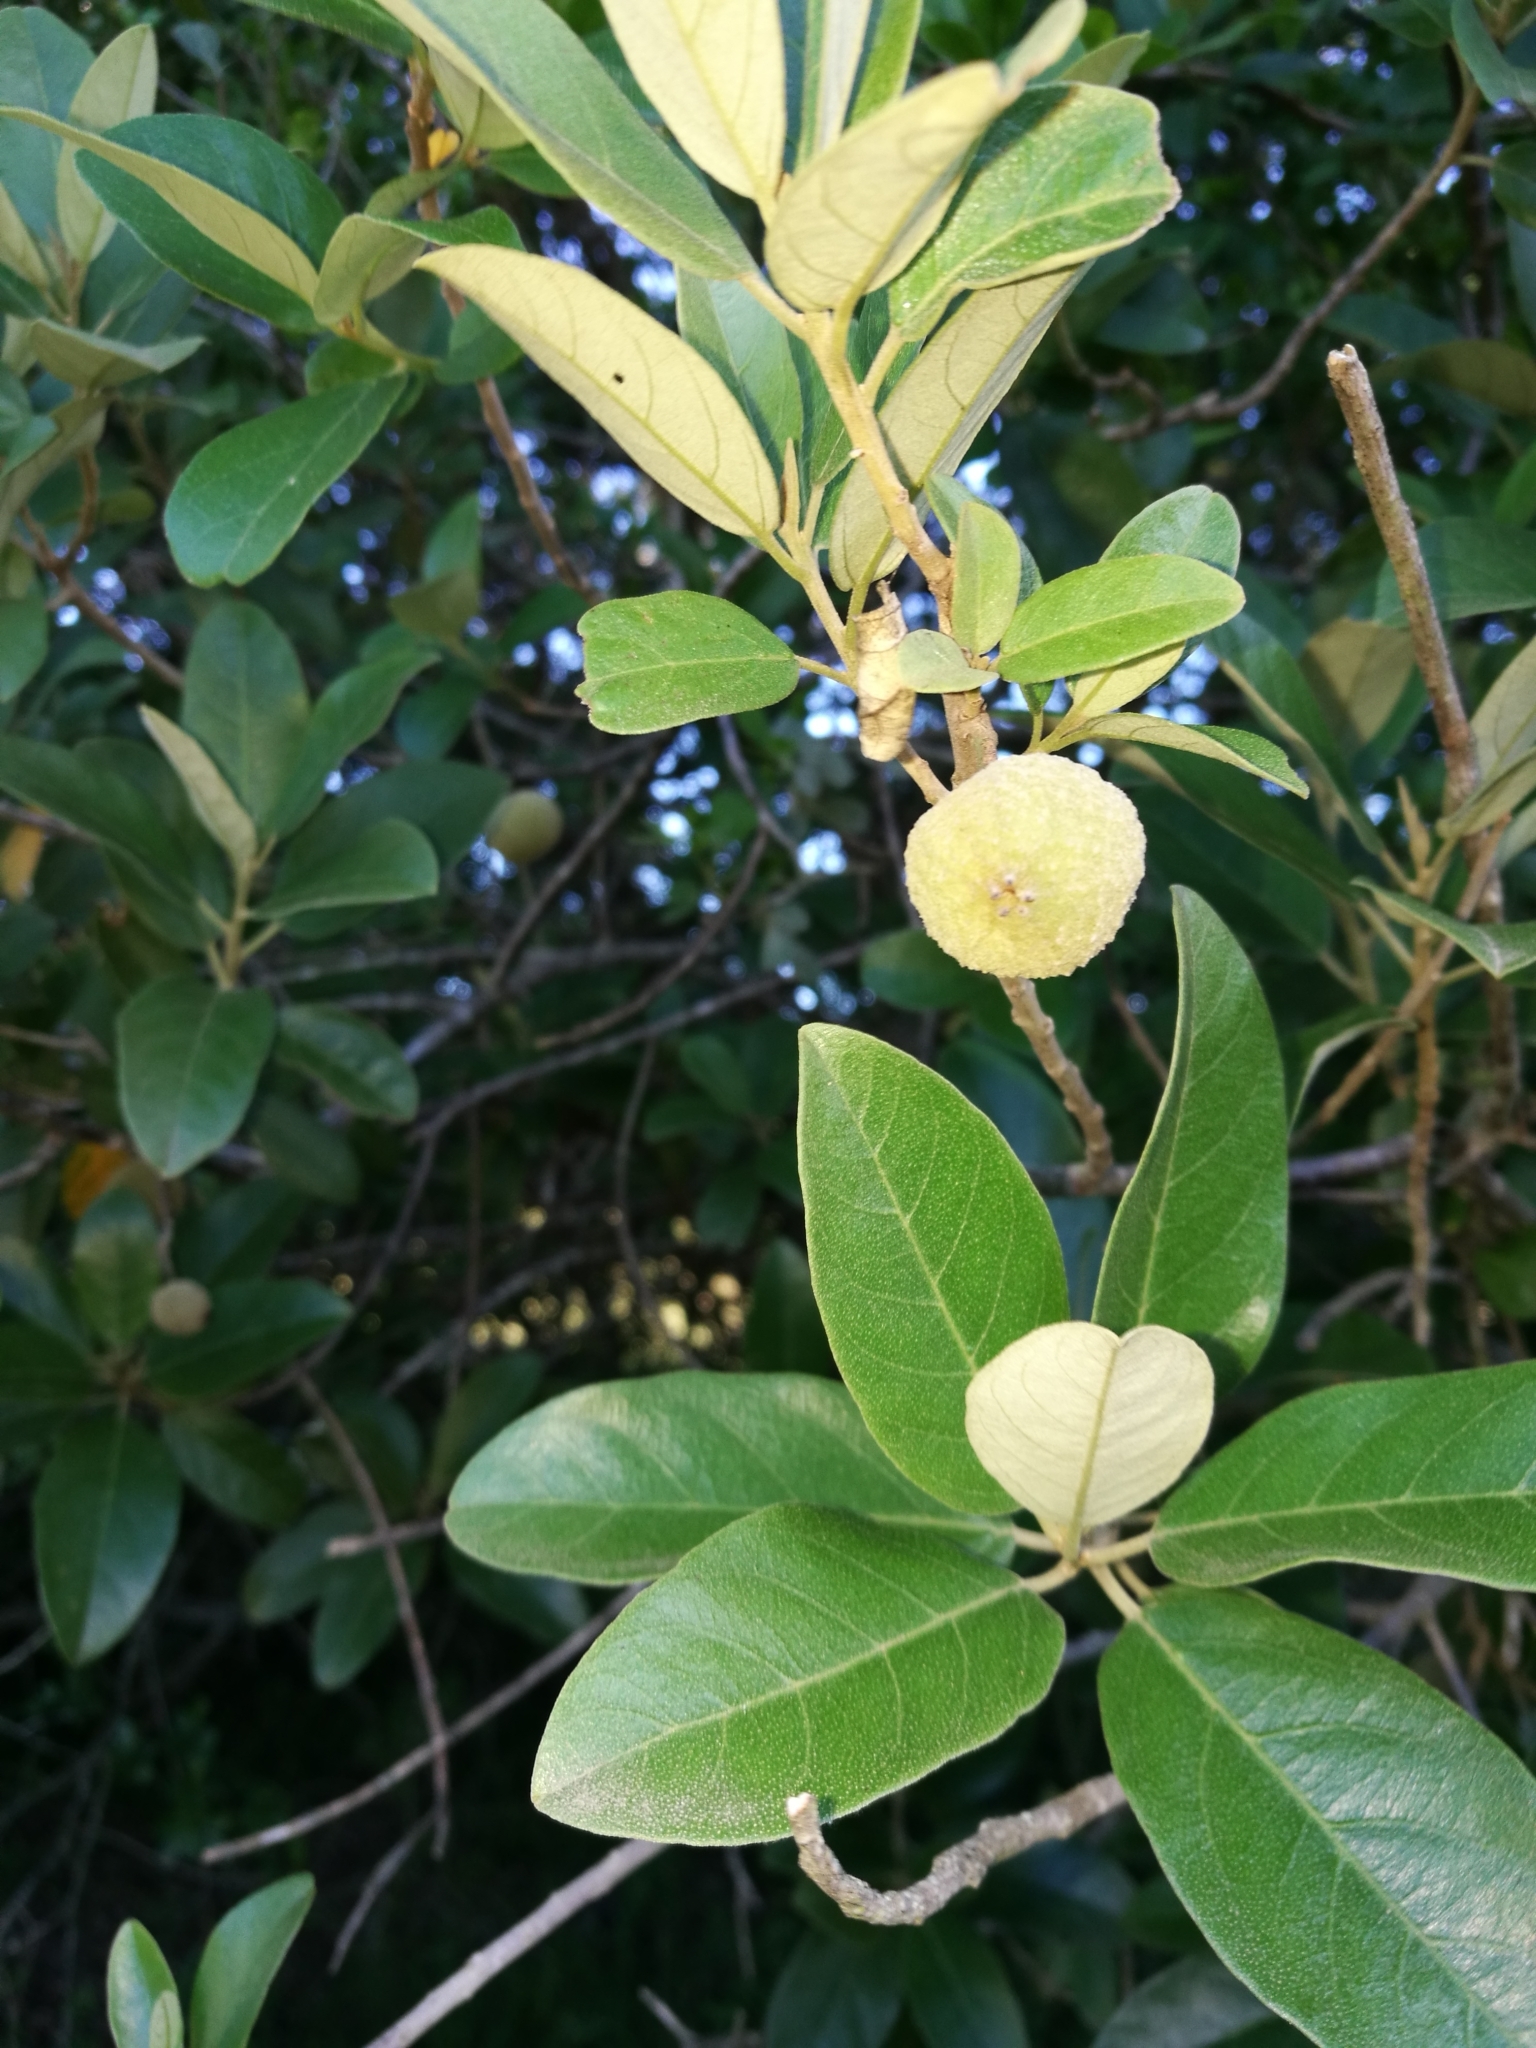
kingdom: Plantae
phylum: Tracheophyta
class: Magnoliopsida
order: Malpighiales
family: Achariaceae
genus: Kiggelaria
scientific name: Kiggelaria africana
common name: Wild peach
